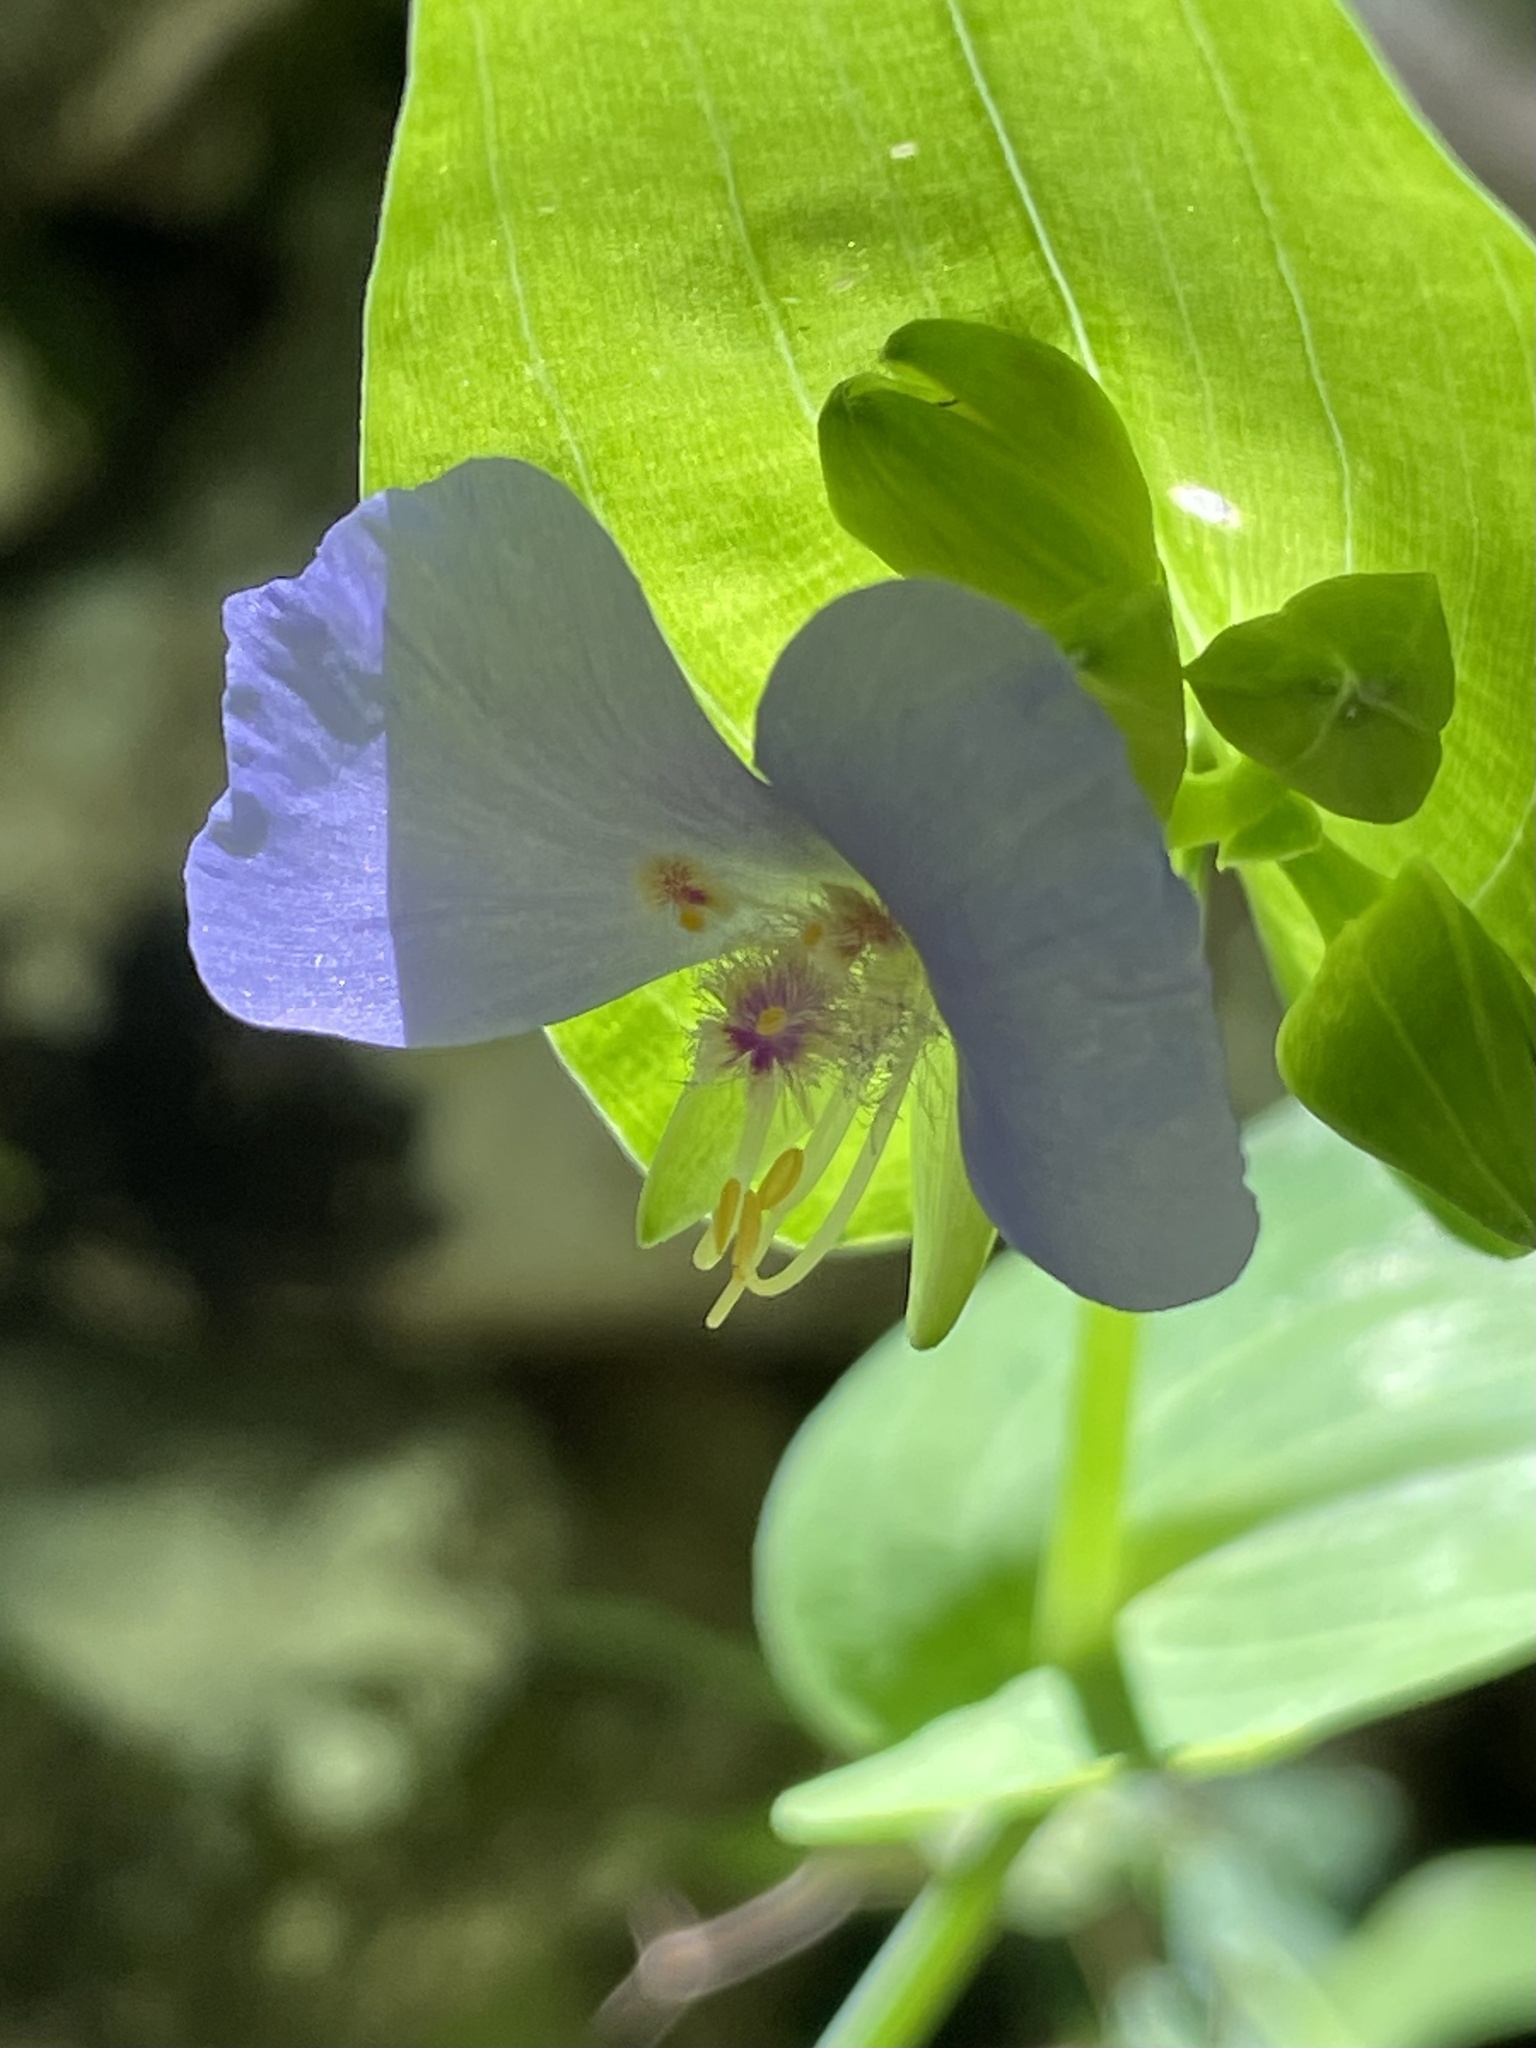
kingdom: Plantae
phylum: Tracheophyta
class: Liliopsida
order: Commelinales
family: Commelinaceae
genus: Tinantia
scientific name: Tinantia anomala
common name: False dayflower
